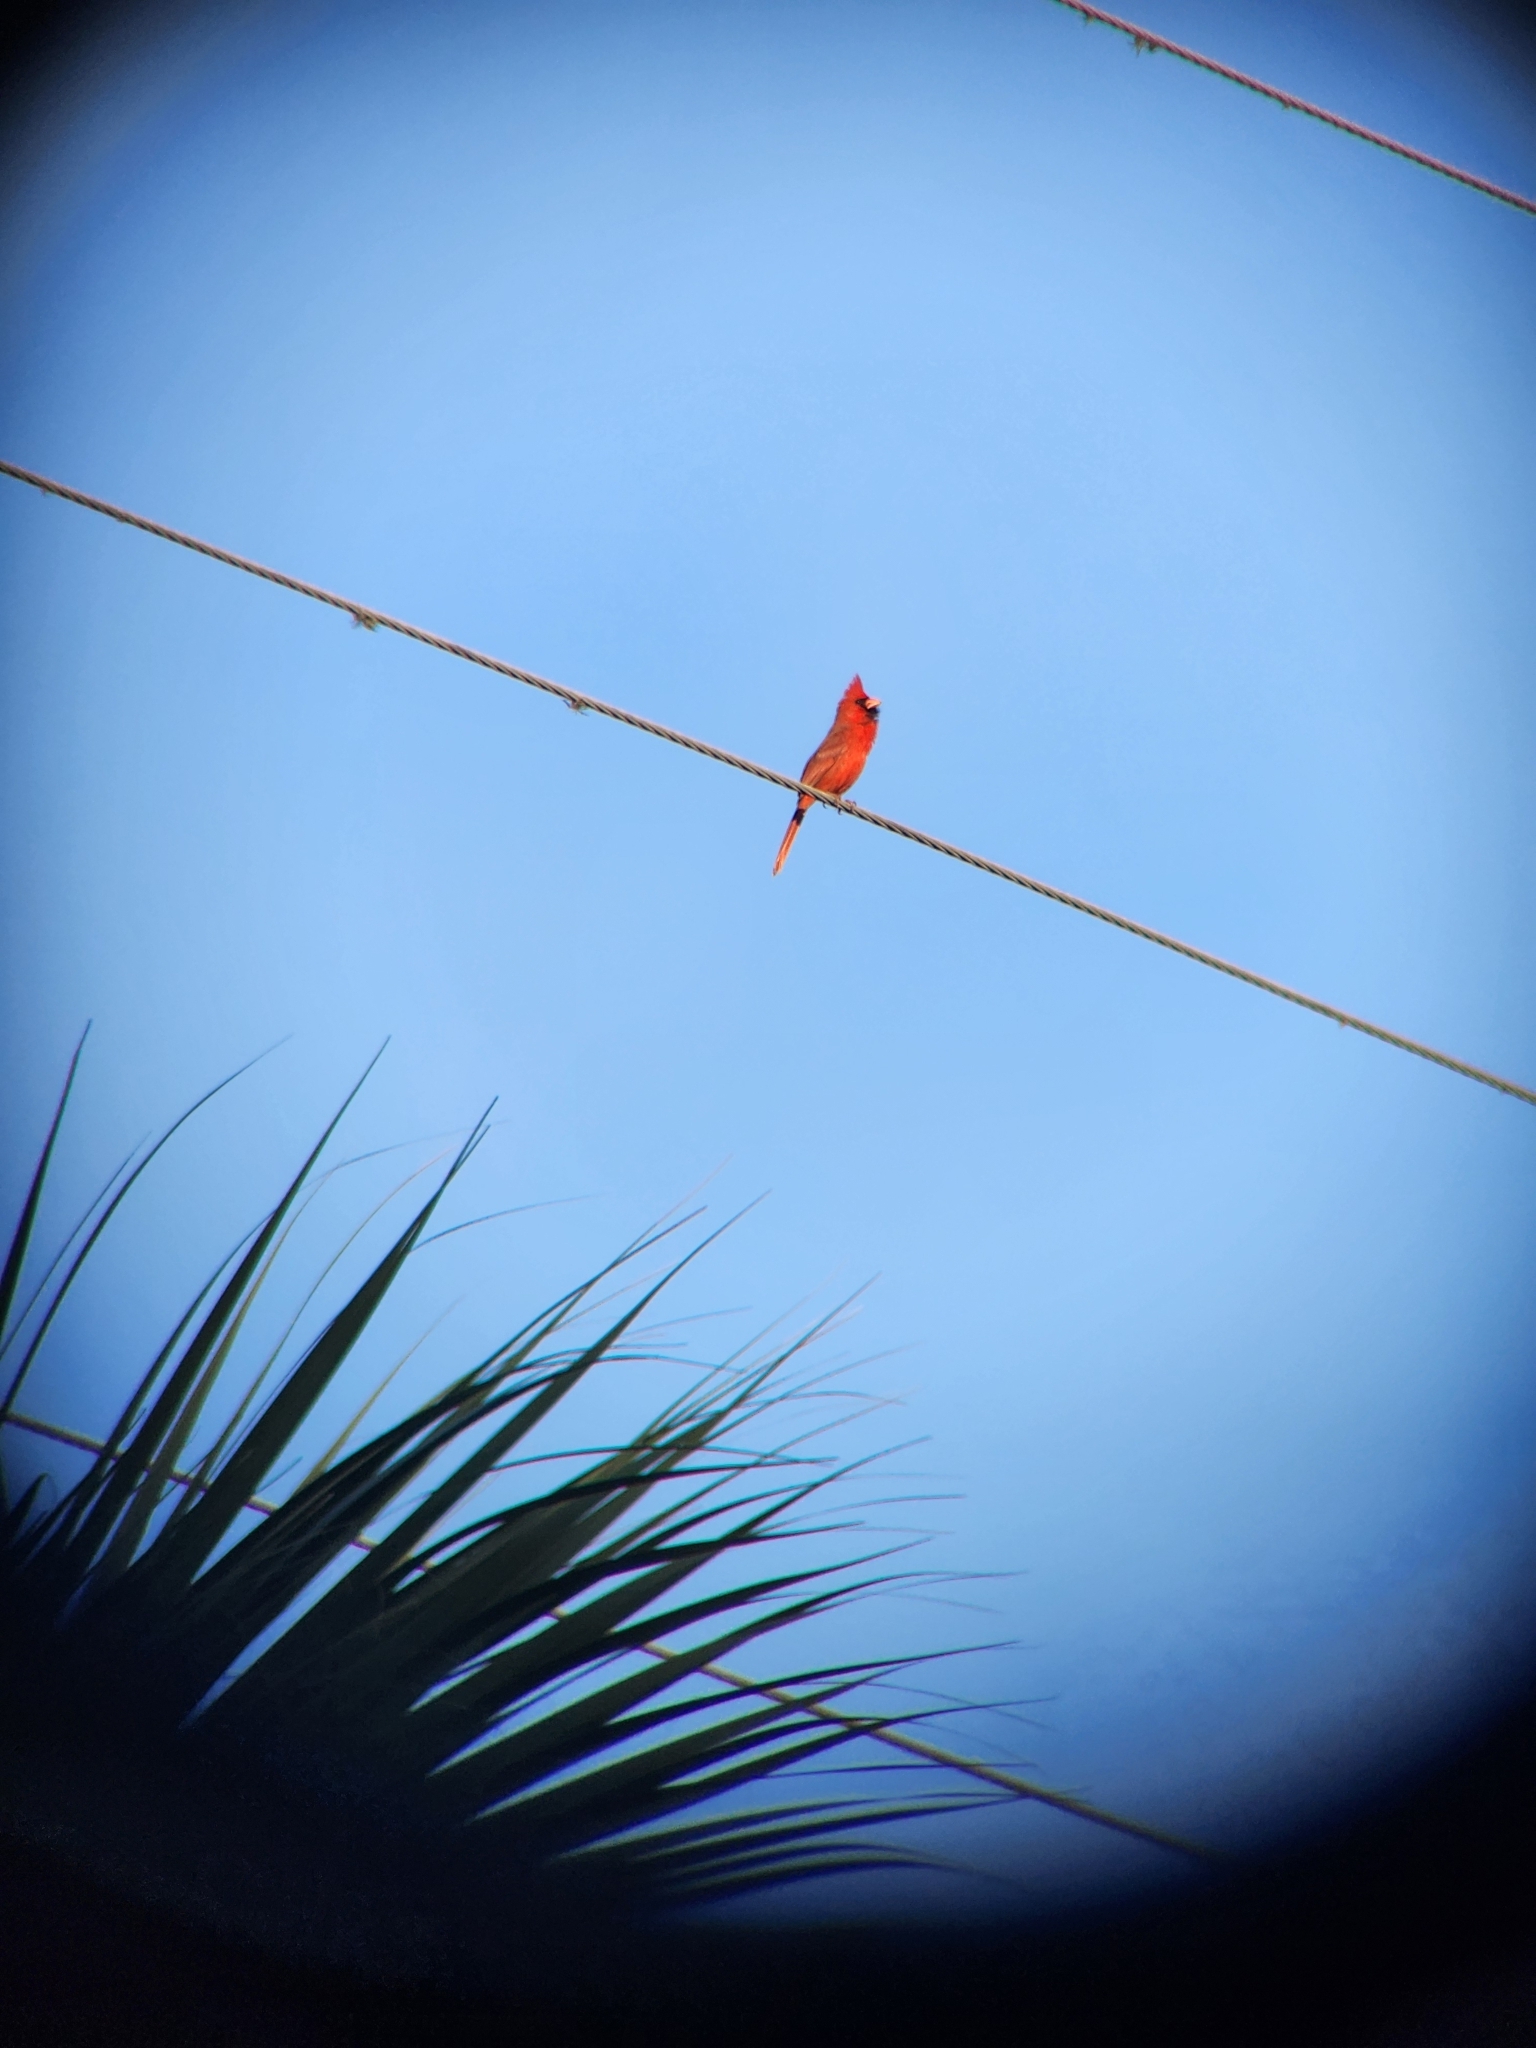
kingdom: Animalia
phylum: Chordata
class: Aves
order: Passeriformes
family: Cardinalidae
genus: Cardinalis
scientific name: Cardinalis cardinalis
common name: Northern cardinal
